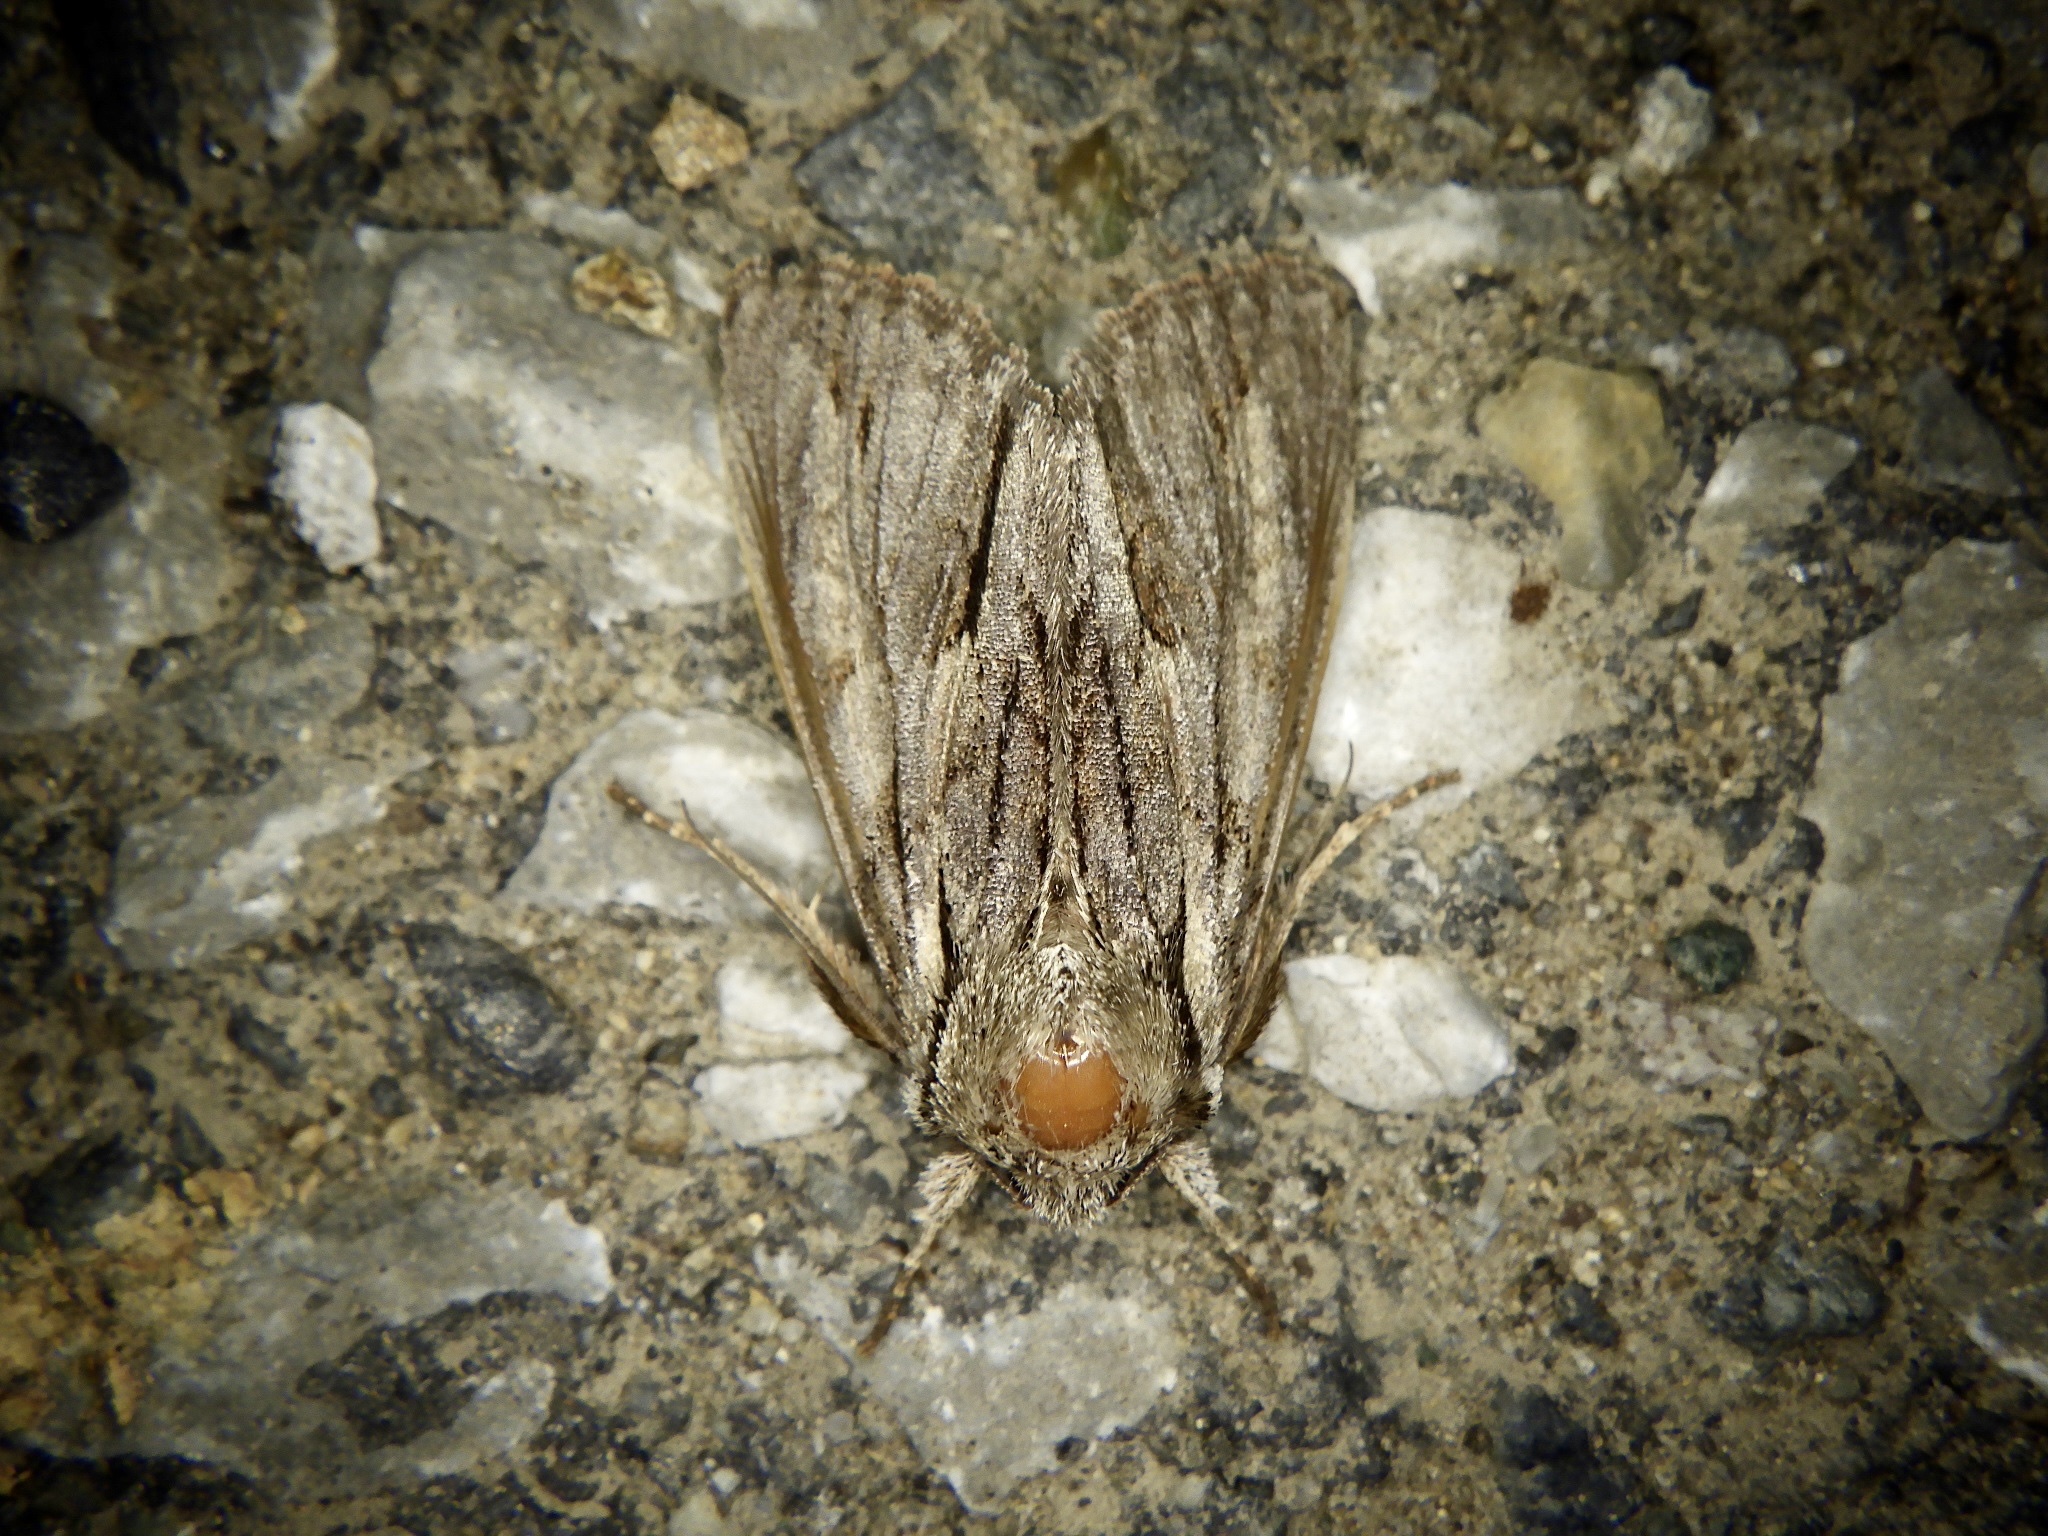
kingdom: Animalia
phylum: Arthropoda
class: Insecta
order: Lepidoptera
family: Noctuidae
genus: Egira
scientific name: Egira saxea
